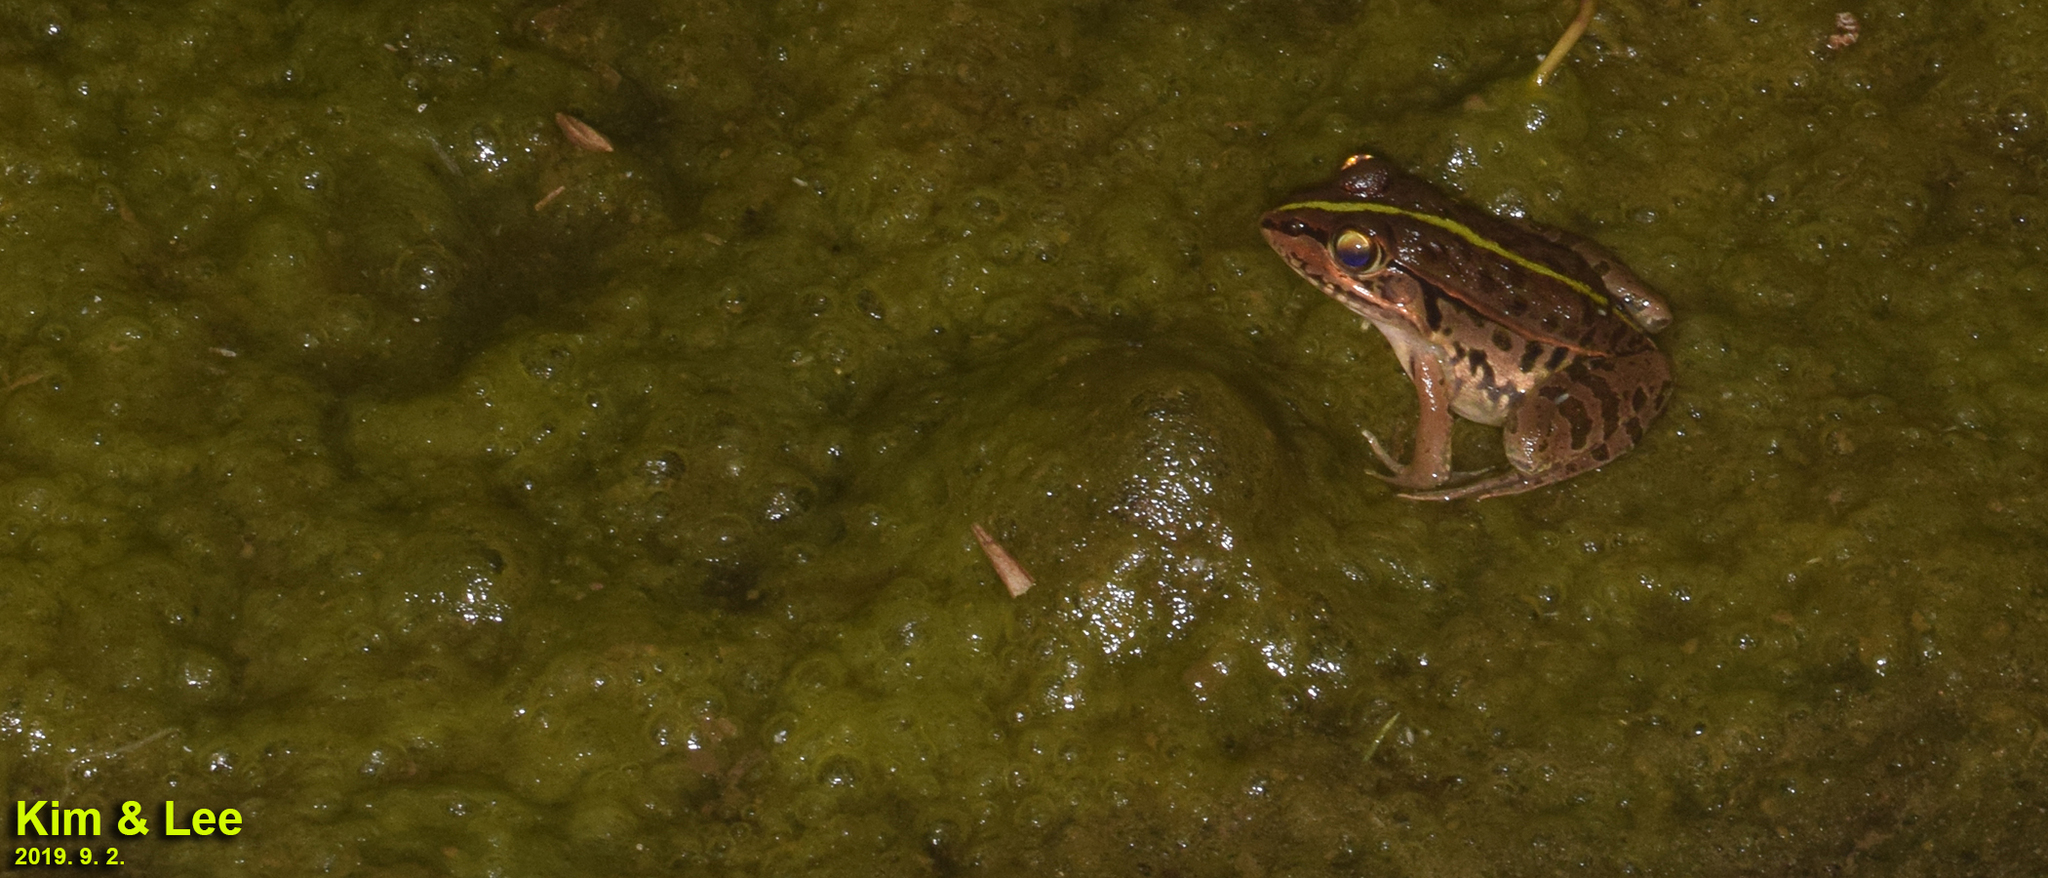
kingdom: Animalia
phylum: Chordata
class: Amphibia
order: Anura
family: Ranidae
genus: Pelophylax
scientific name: Pelophylax nigromaculatus
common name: Black-spotted pond frog
